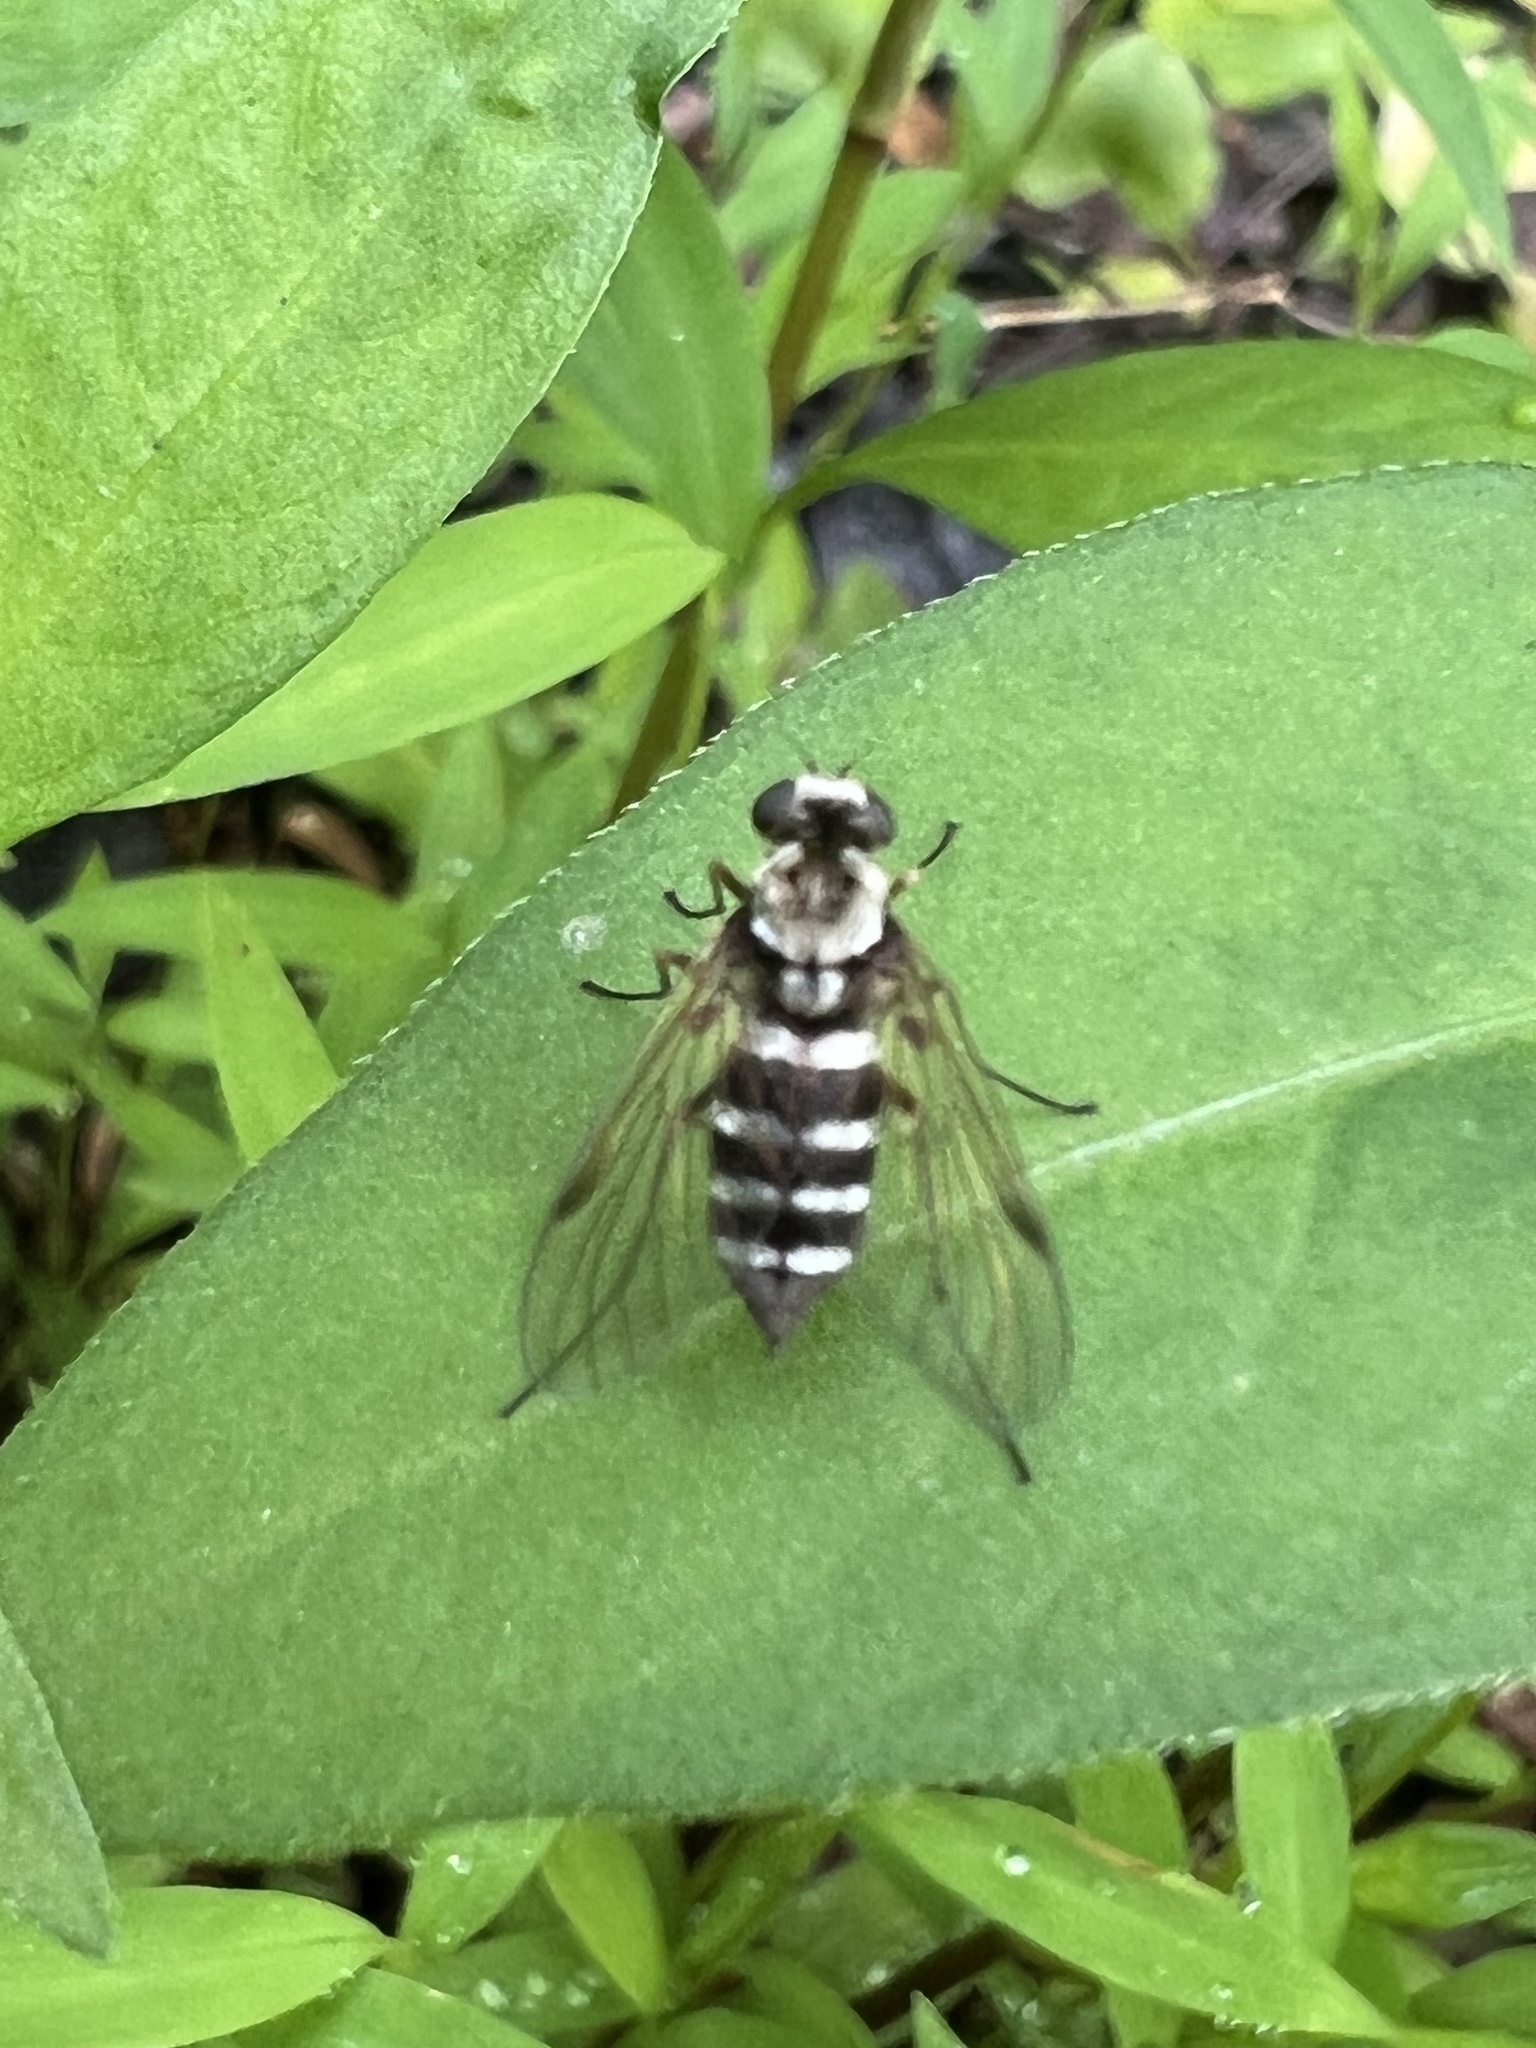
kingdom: Animalia
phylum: Arthropoda
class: Insecta
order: Diptera
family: Rhagionidae
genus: Chrysopilus
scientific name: Chrysopilus fasciatus
